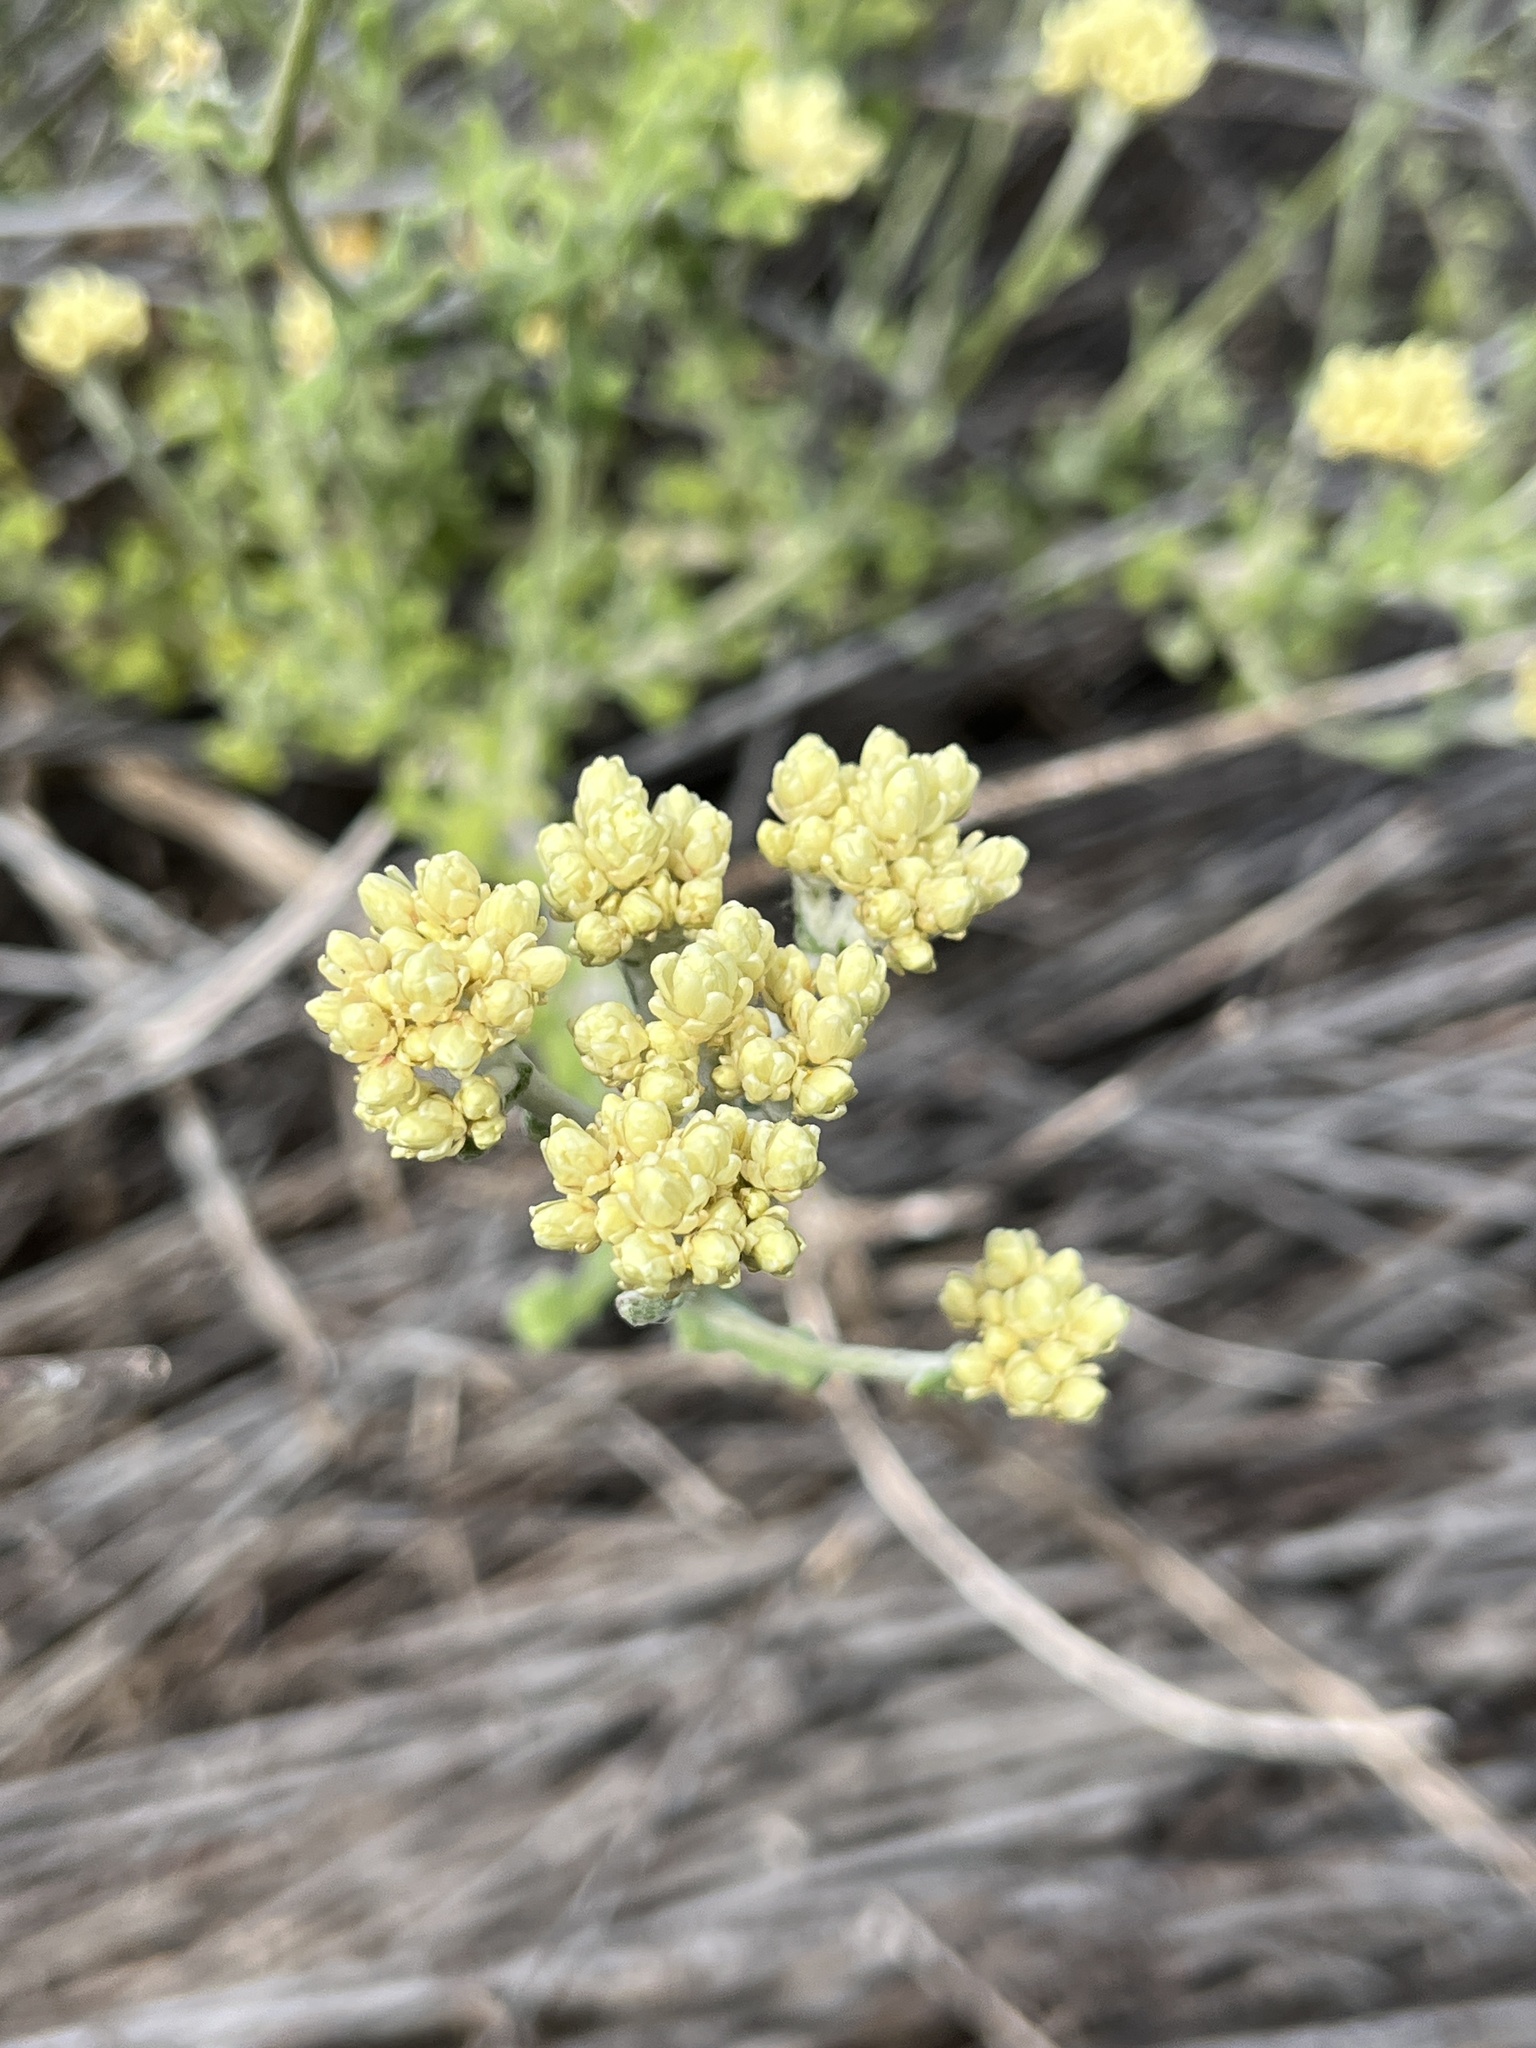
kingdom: Plantae
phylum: Tracheophyta
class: Magnoliopsida
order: Asterales
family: Asteraceae
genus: Helichrysum
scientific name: Helichrysum patulum
